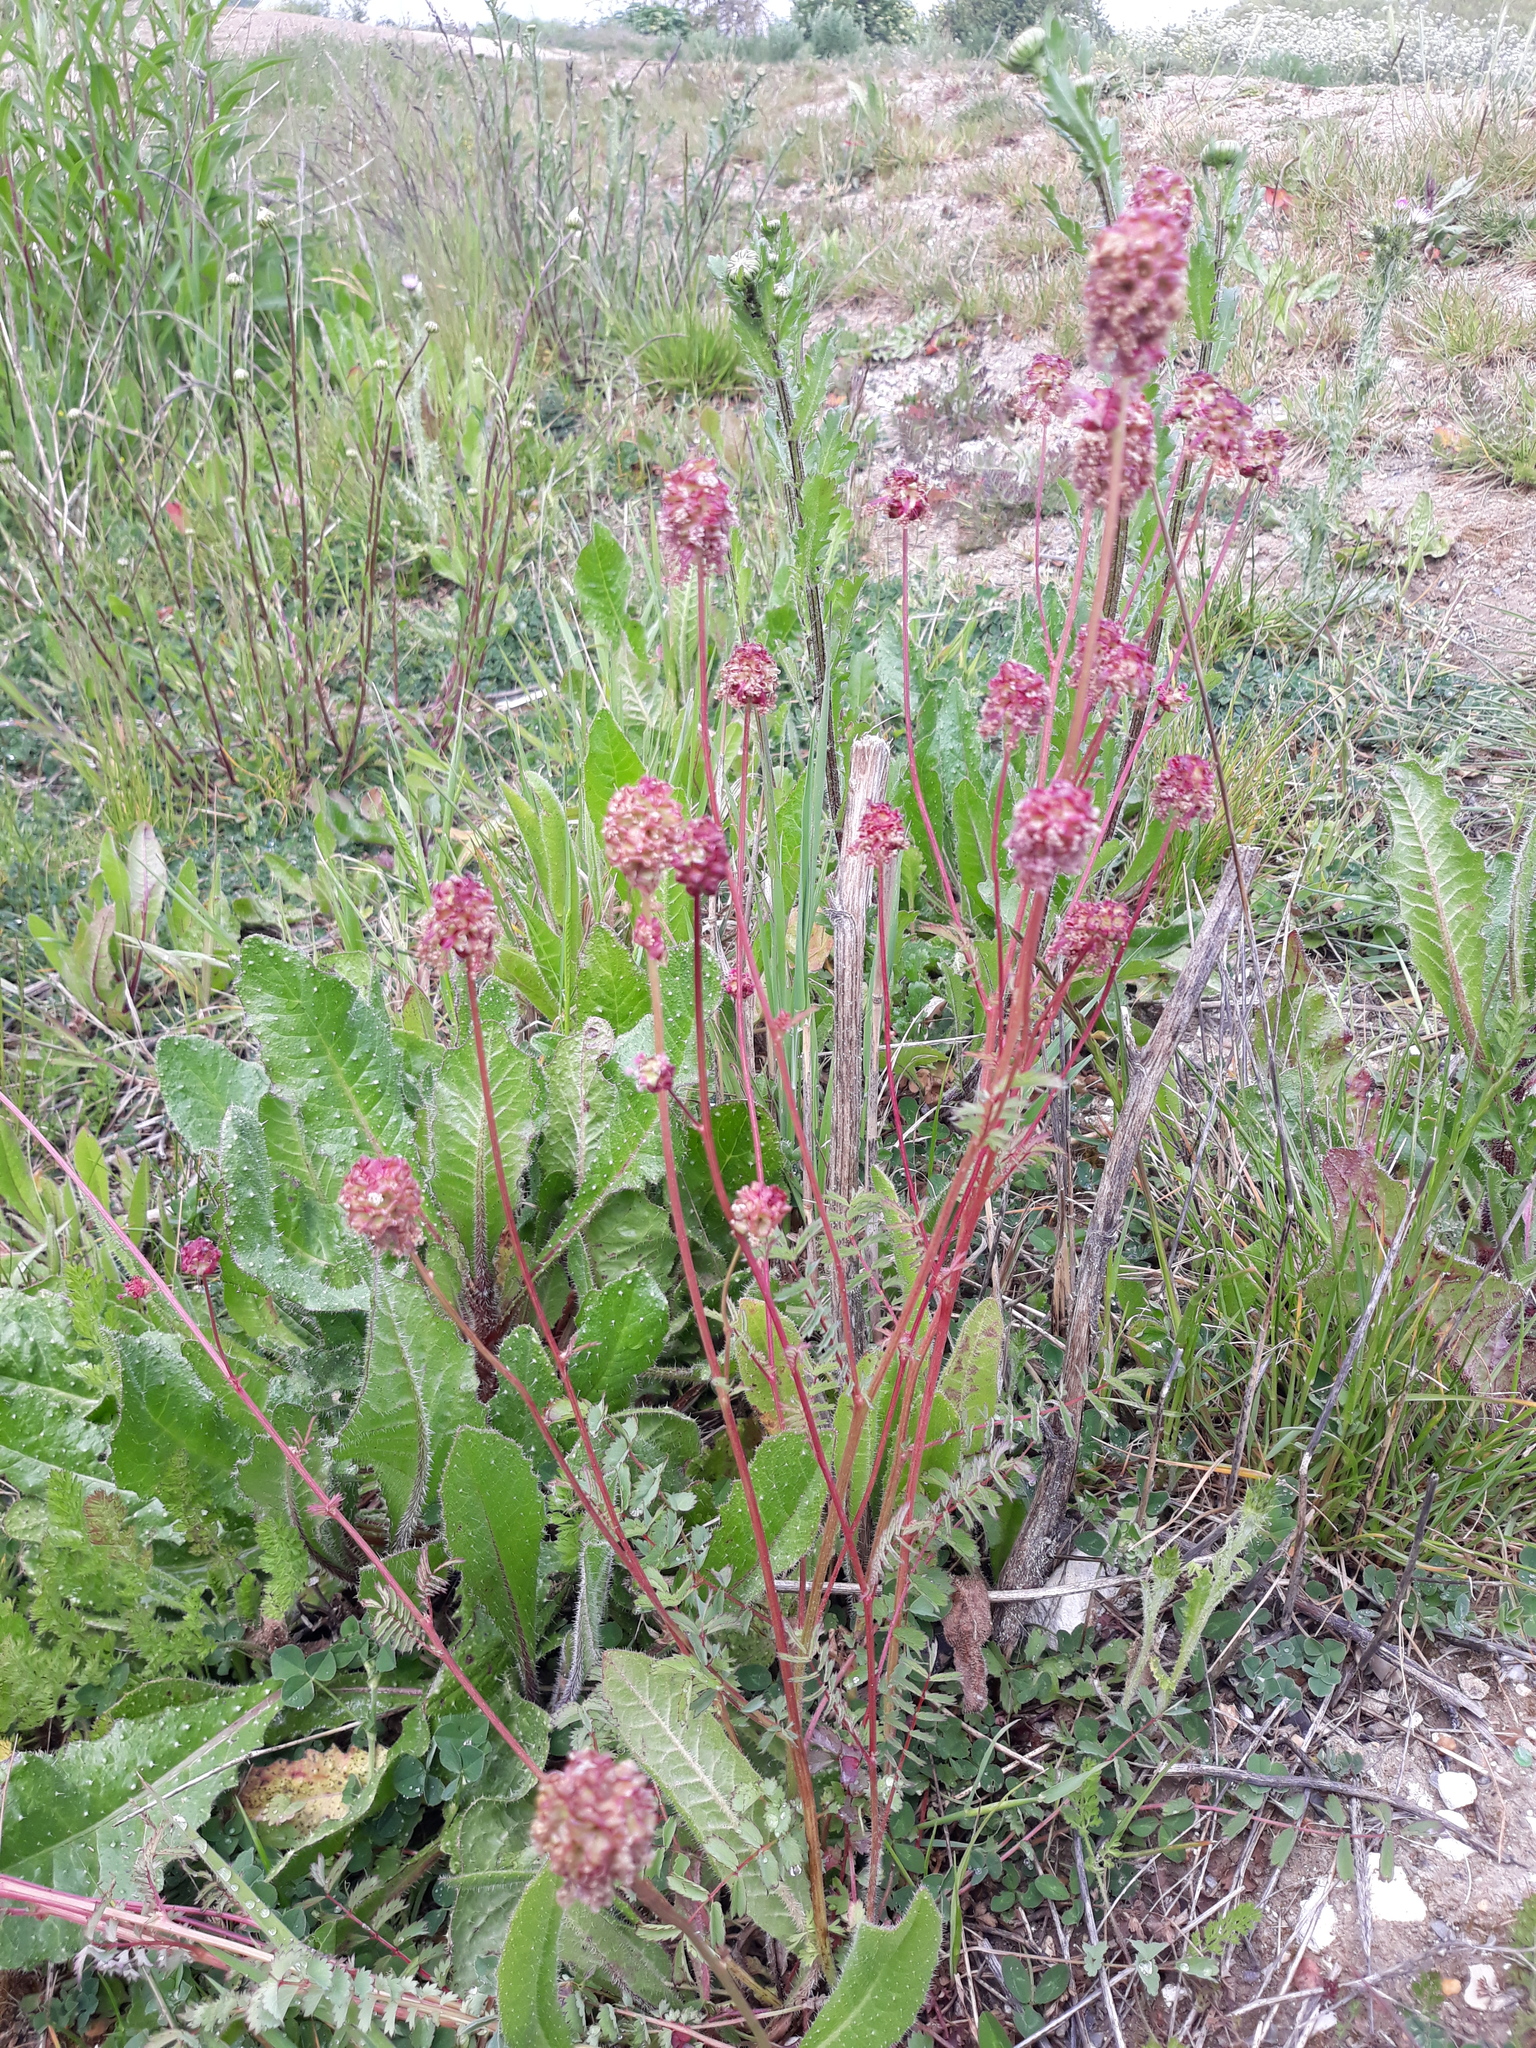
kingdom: Plantae
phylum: Tracheophyta
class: Magnoliopsida
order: Rosales
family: Rosaceae
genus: Poterium
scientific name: Poterium sanguisorba
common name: Salad burnet
